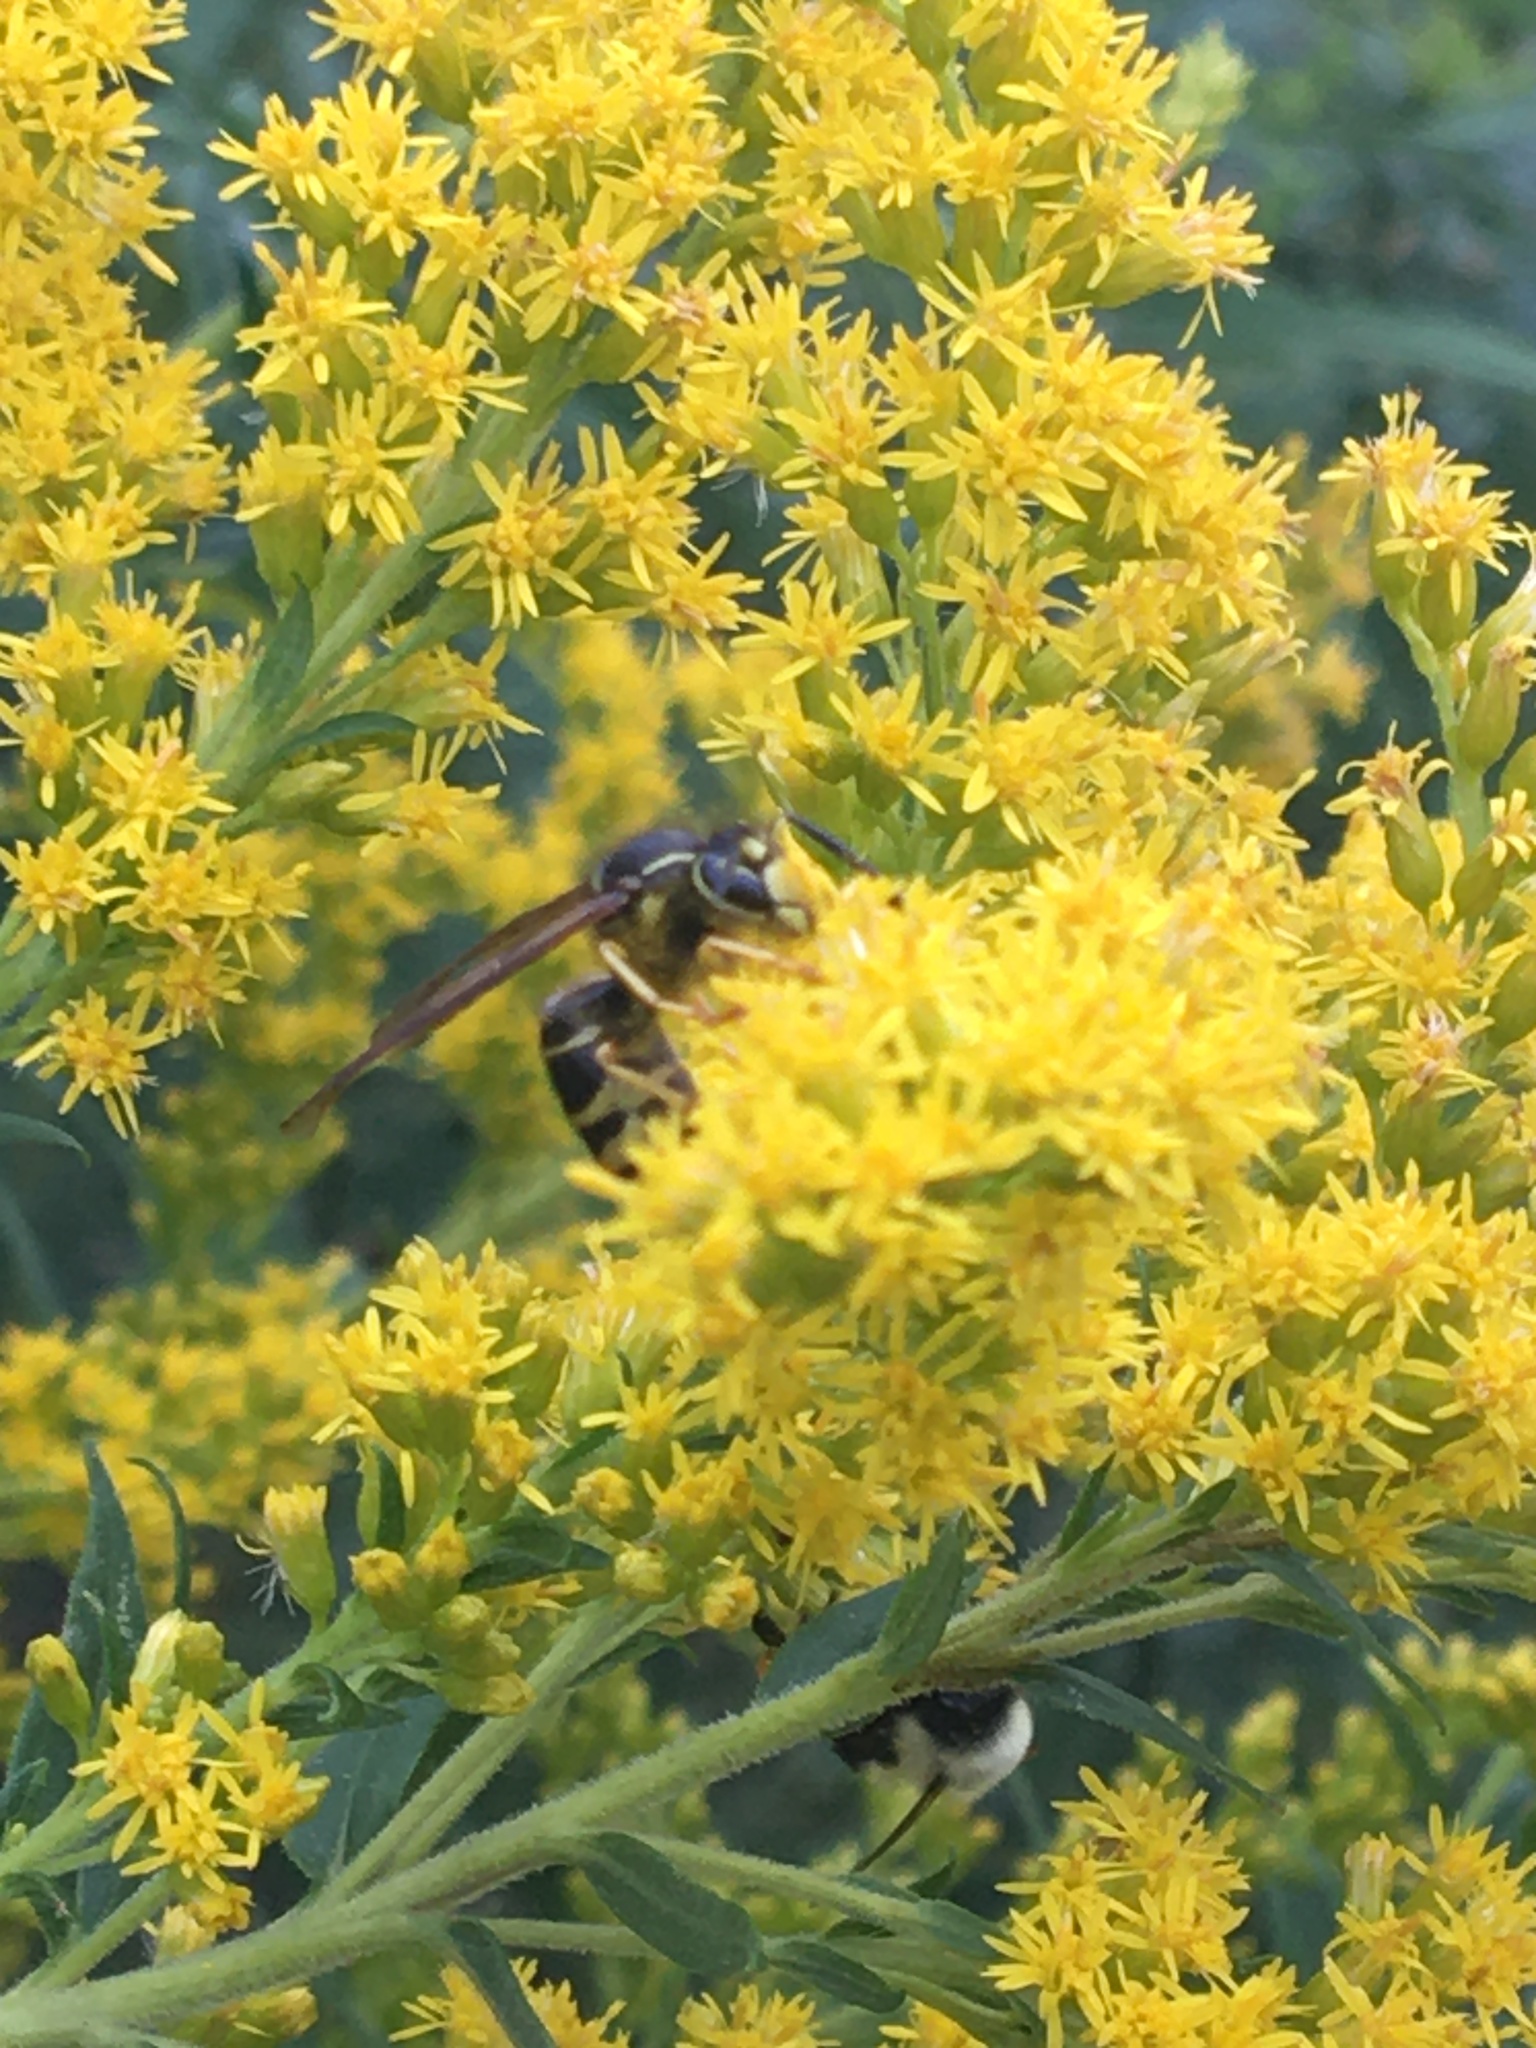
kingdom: Animalia
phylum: Arthropoda
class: Insecta
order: Hymenoptera
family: Vespidae
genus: Vespula
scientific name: Vespula vidua
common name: Widow yellowjacket
